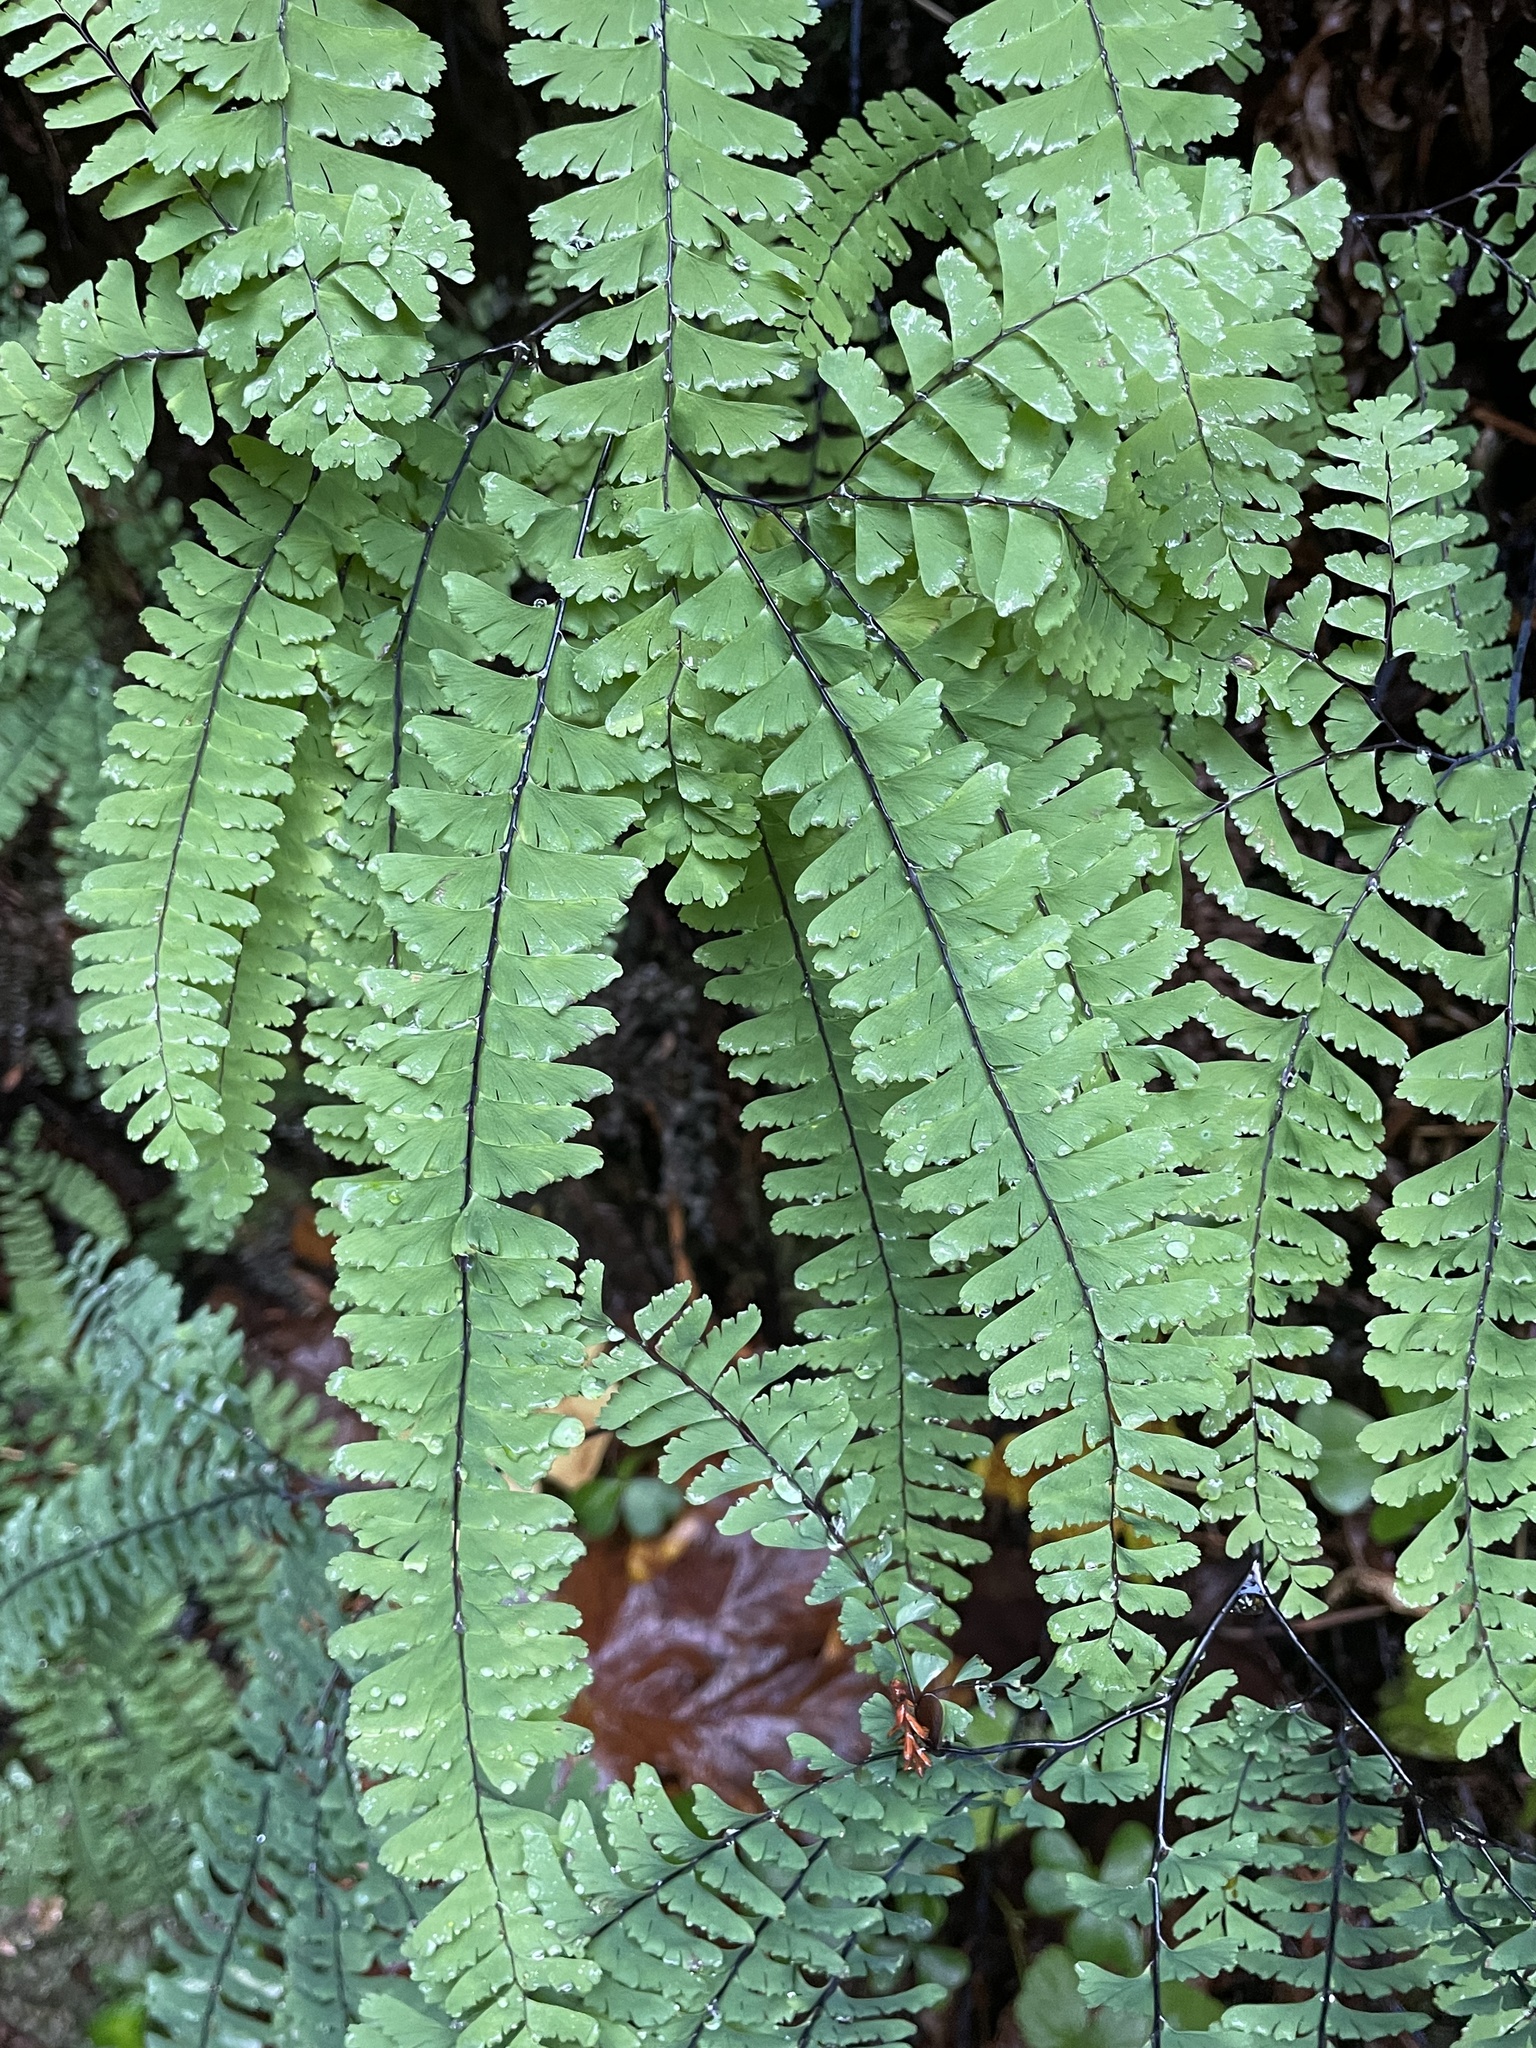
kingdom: Plantae
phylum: Tracheophyta
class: Polypodiopsida
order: Polypodiales
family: Pteridaceae
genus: Adiantum
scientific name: Adiantum aleuticum
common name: Aleutian maidenhair fern
